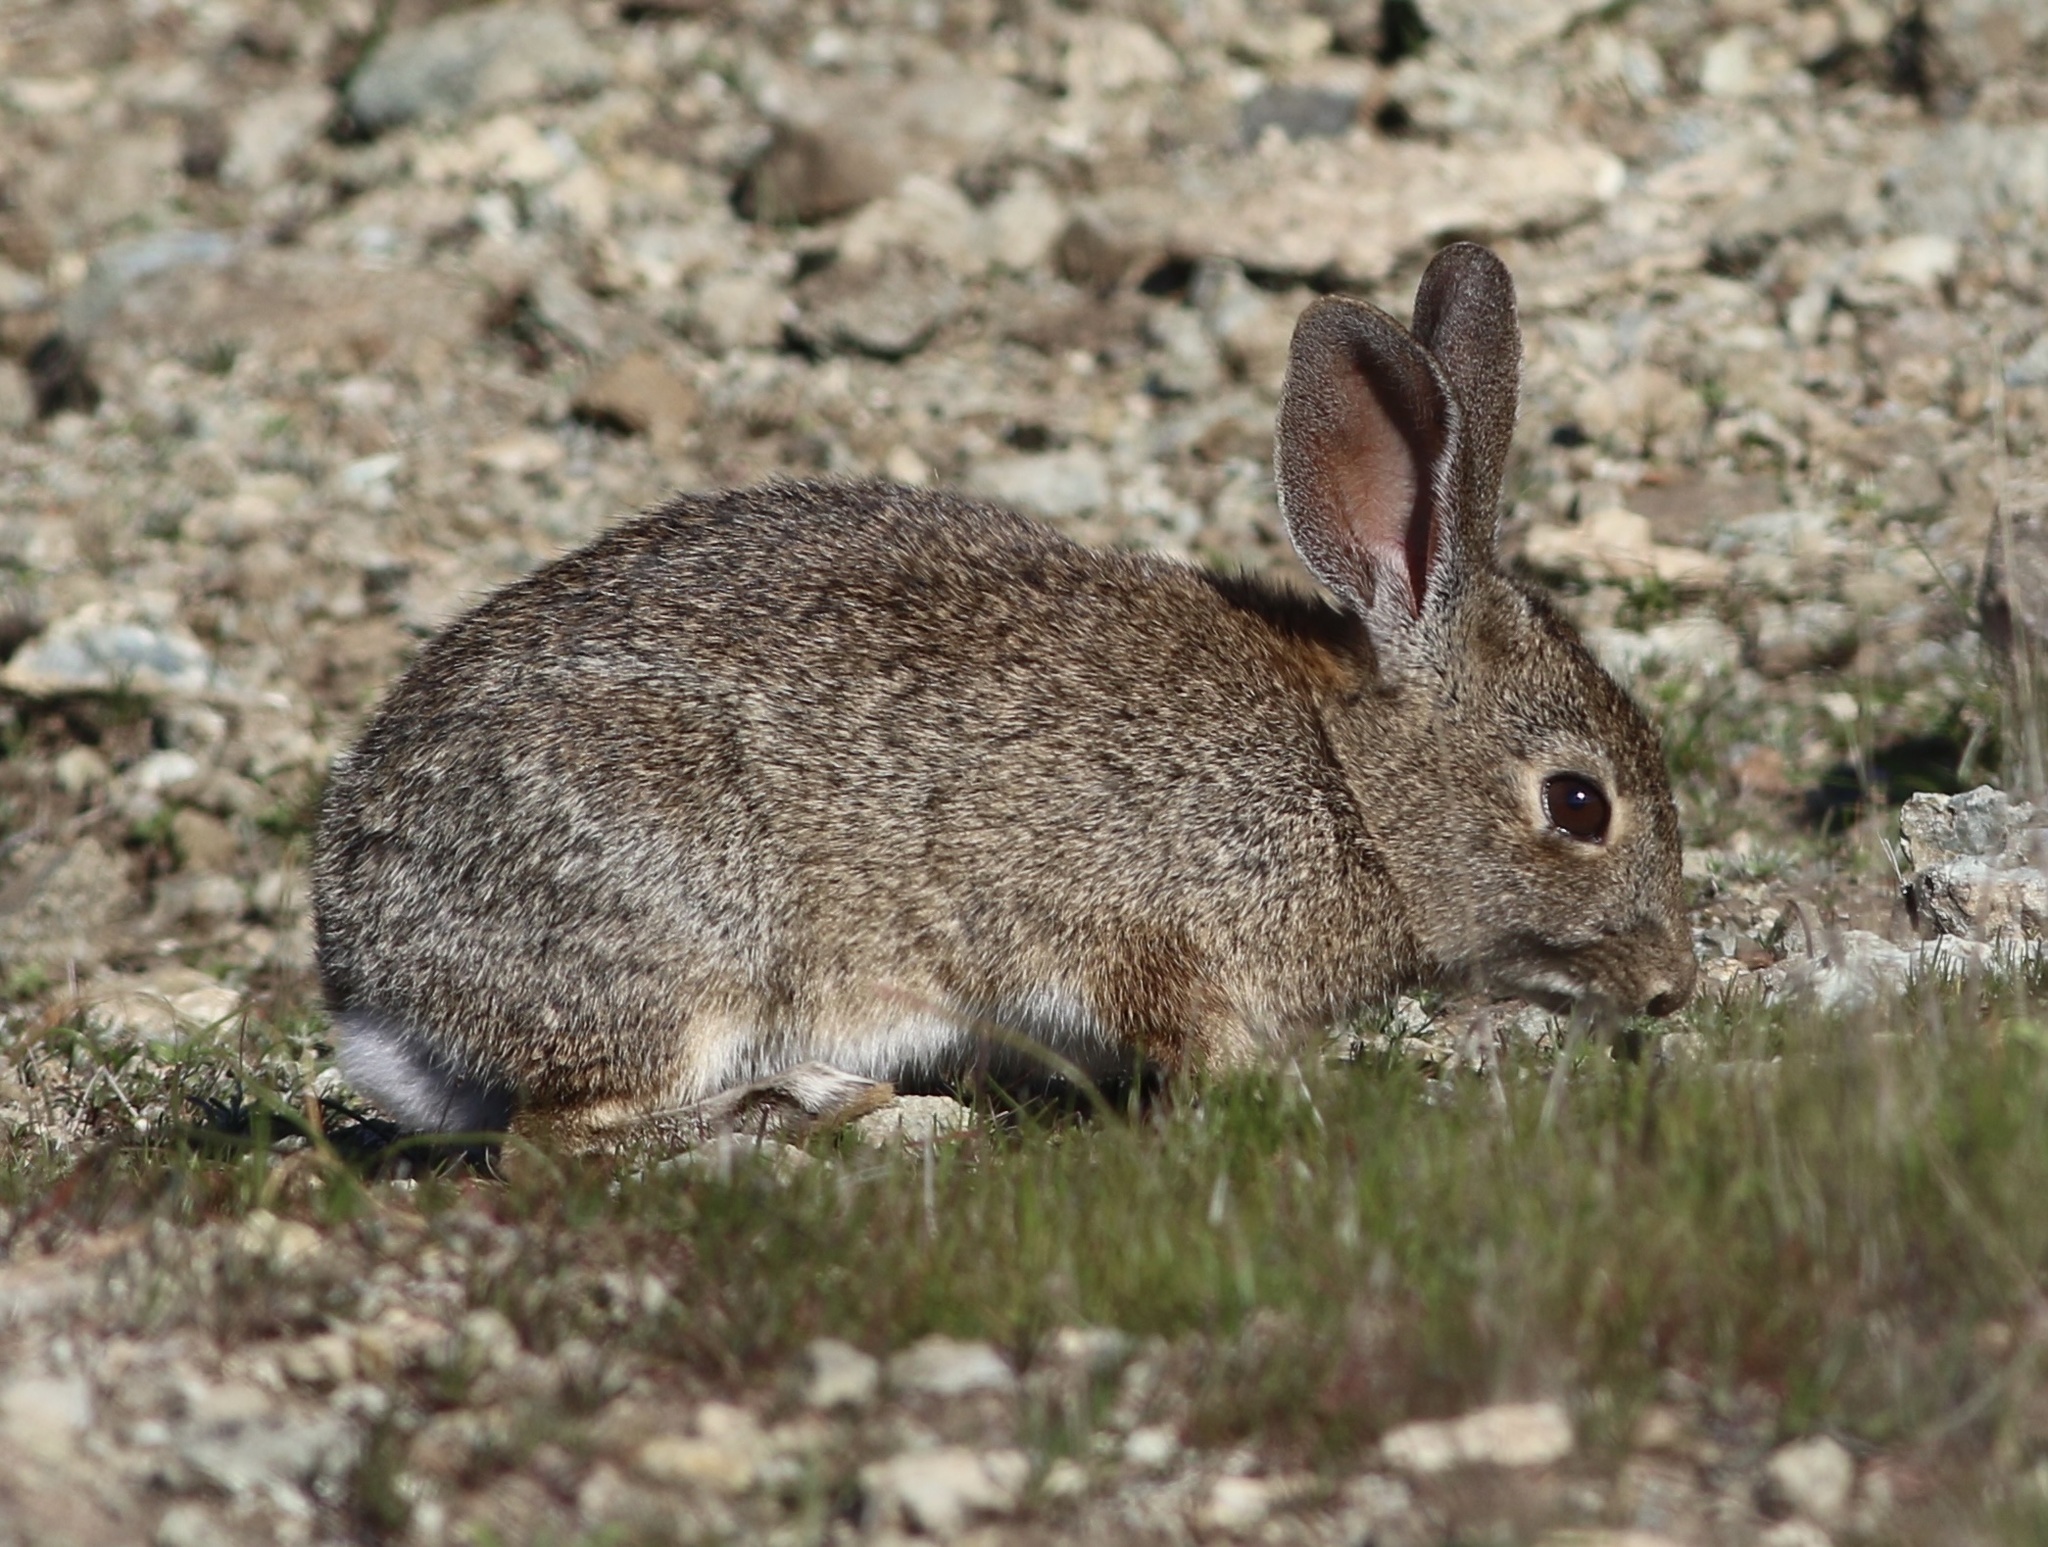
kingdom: Animalia
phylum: Chordata
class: Mammalia
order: Lagomorpha
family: Leporidae
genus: Sylvilagus
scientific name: Sylvilagus bachmani
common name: Brush rabbit
